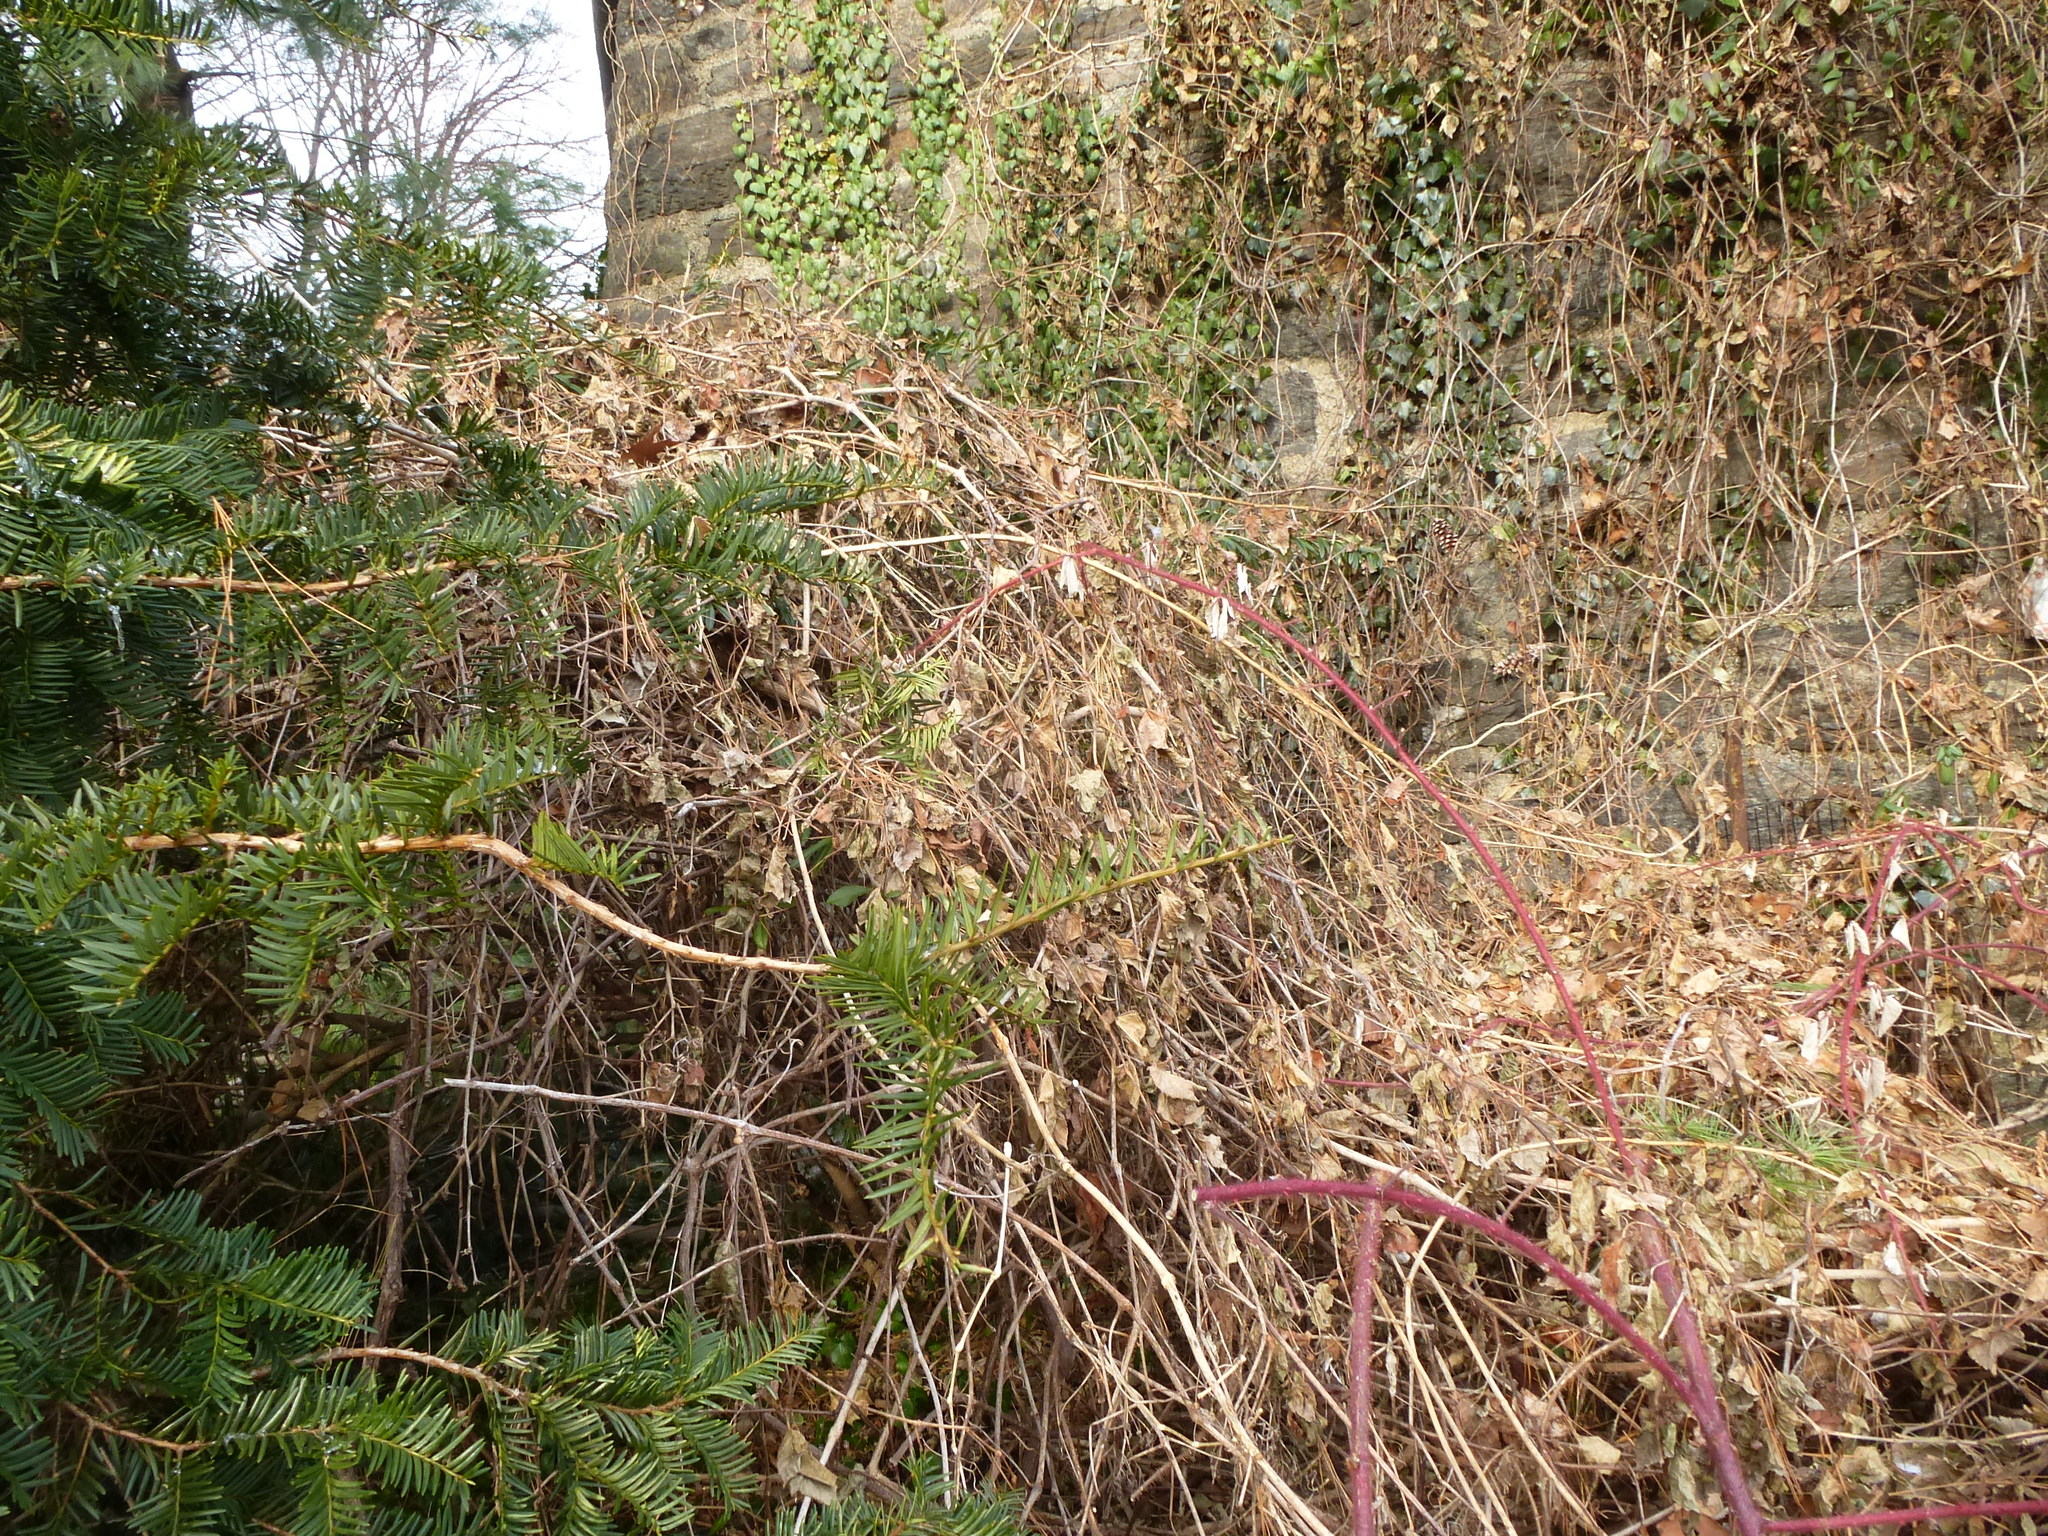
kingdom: Plantae
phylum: Tracheophyta
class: Magnoliopsida
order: Rosales
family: Rosaceae
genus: Rubus
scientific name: Rubus phoenicolasius
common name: Japanese wineberry
